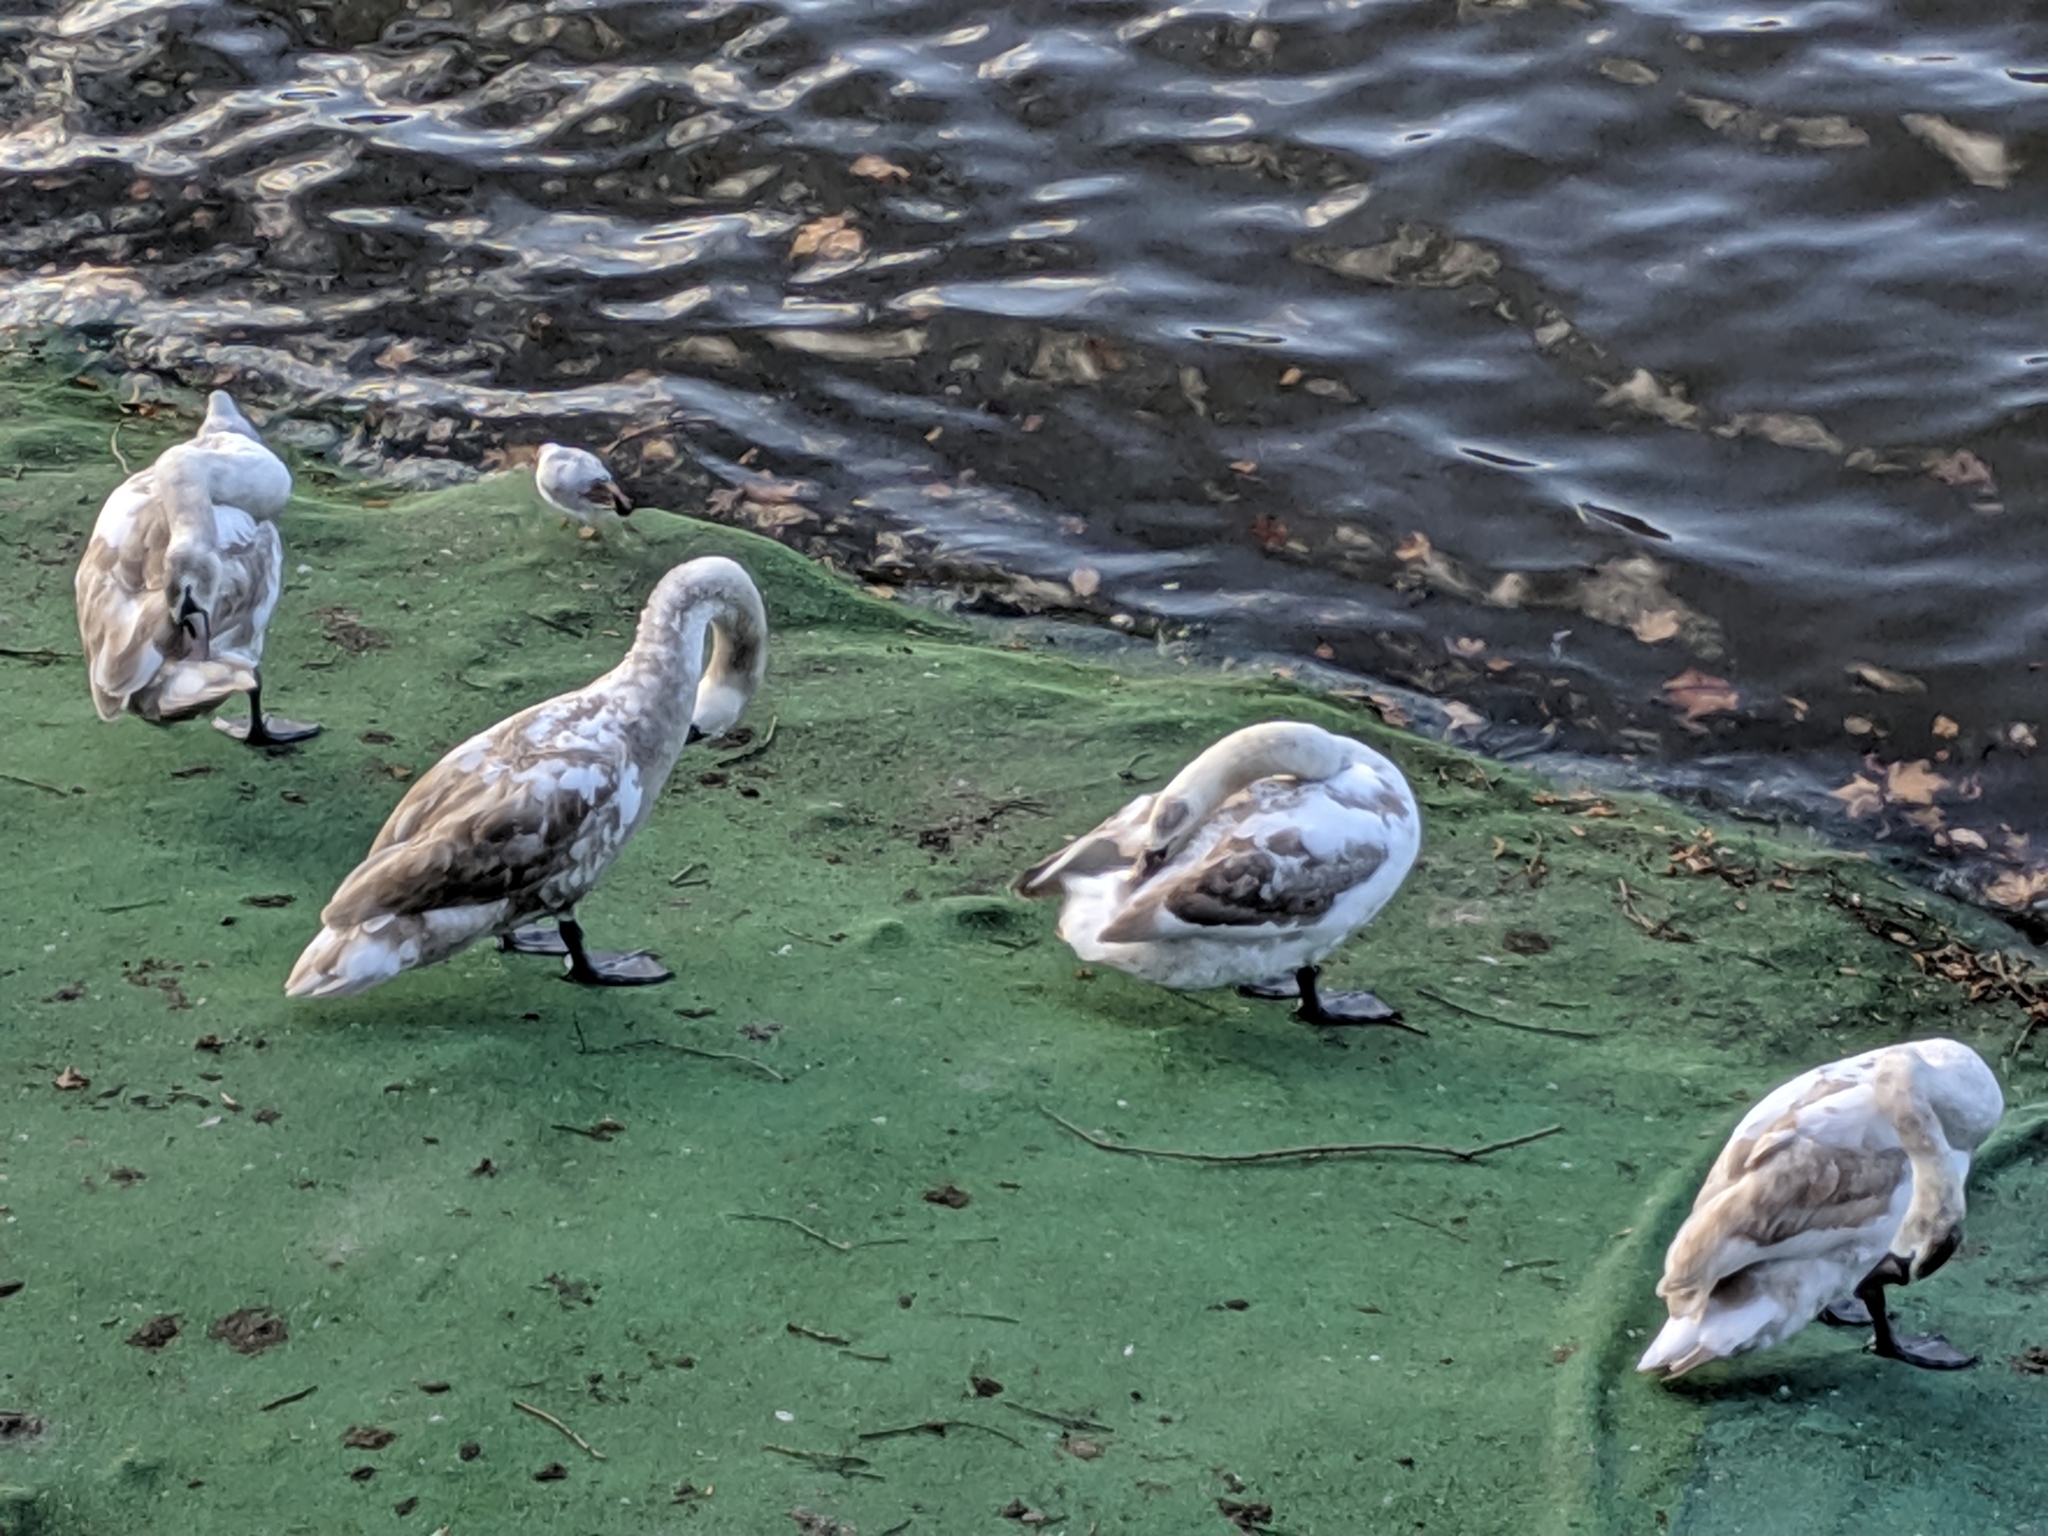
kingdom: Animalia
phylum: Chordata
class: Aves
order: Anseriformes
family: Anatidae
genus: Cygnus
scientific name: Cygnus olor
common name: Mute swan
